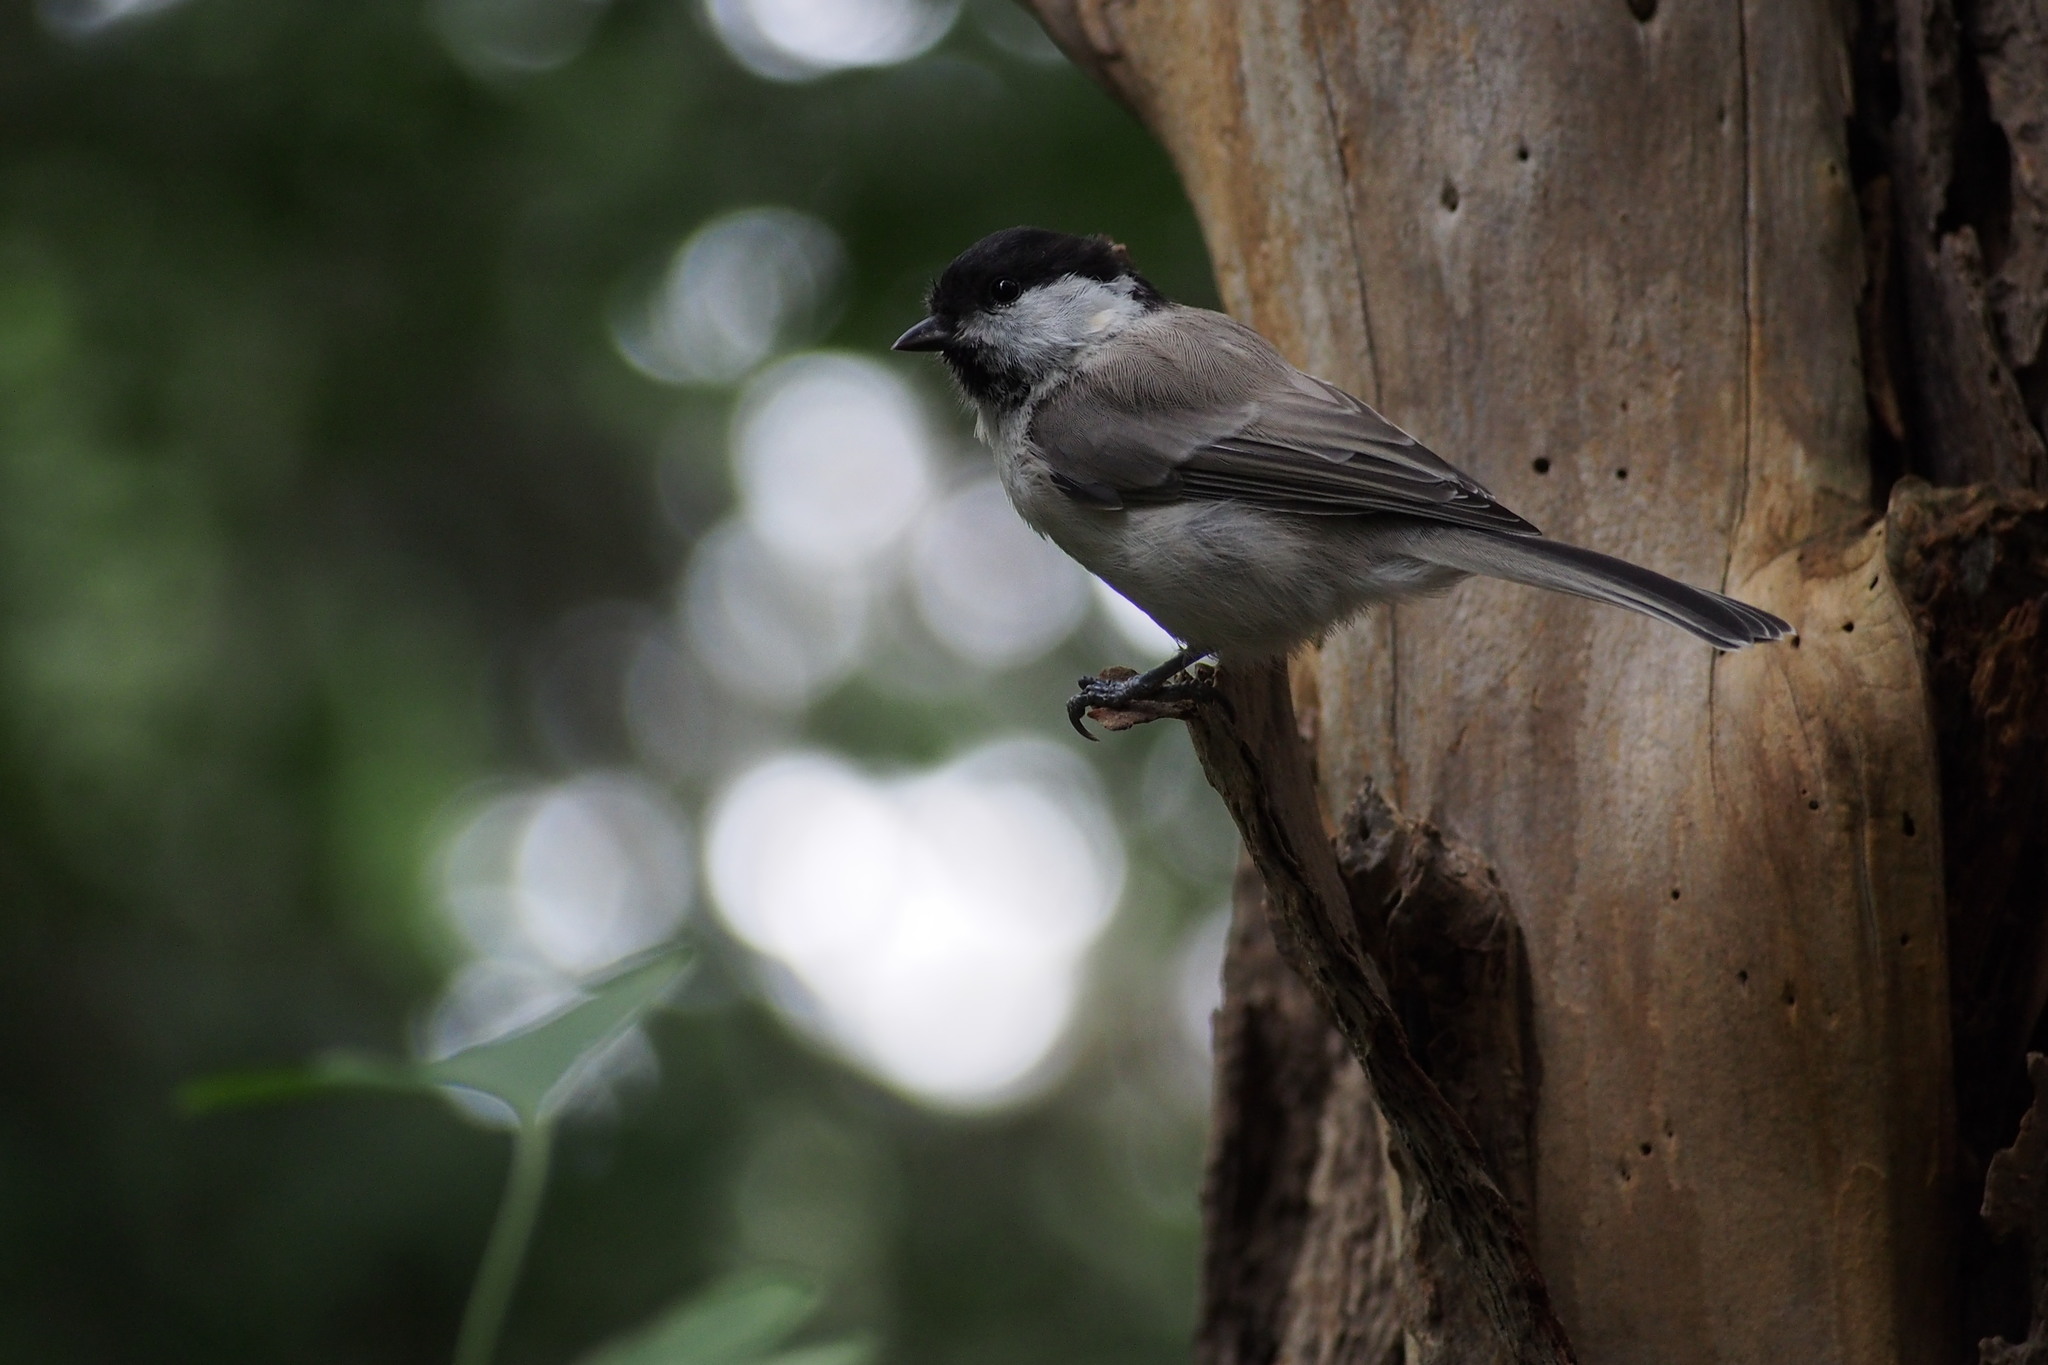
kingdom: Animalia
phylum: Chordata
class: Aves
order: Passeriformes
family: Paridae
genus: Poecile
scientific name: Poecile palustris
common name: Marsh tit
